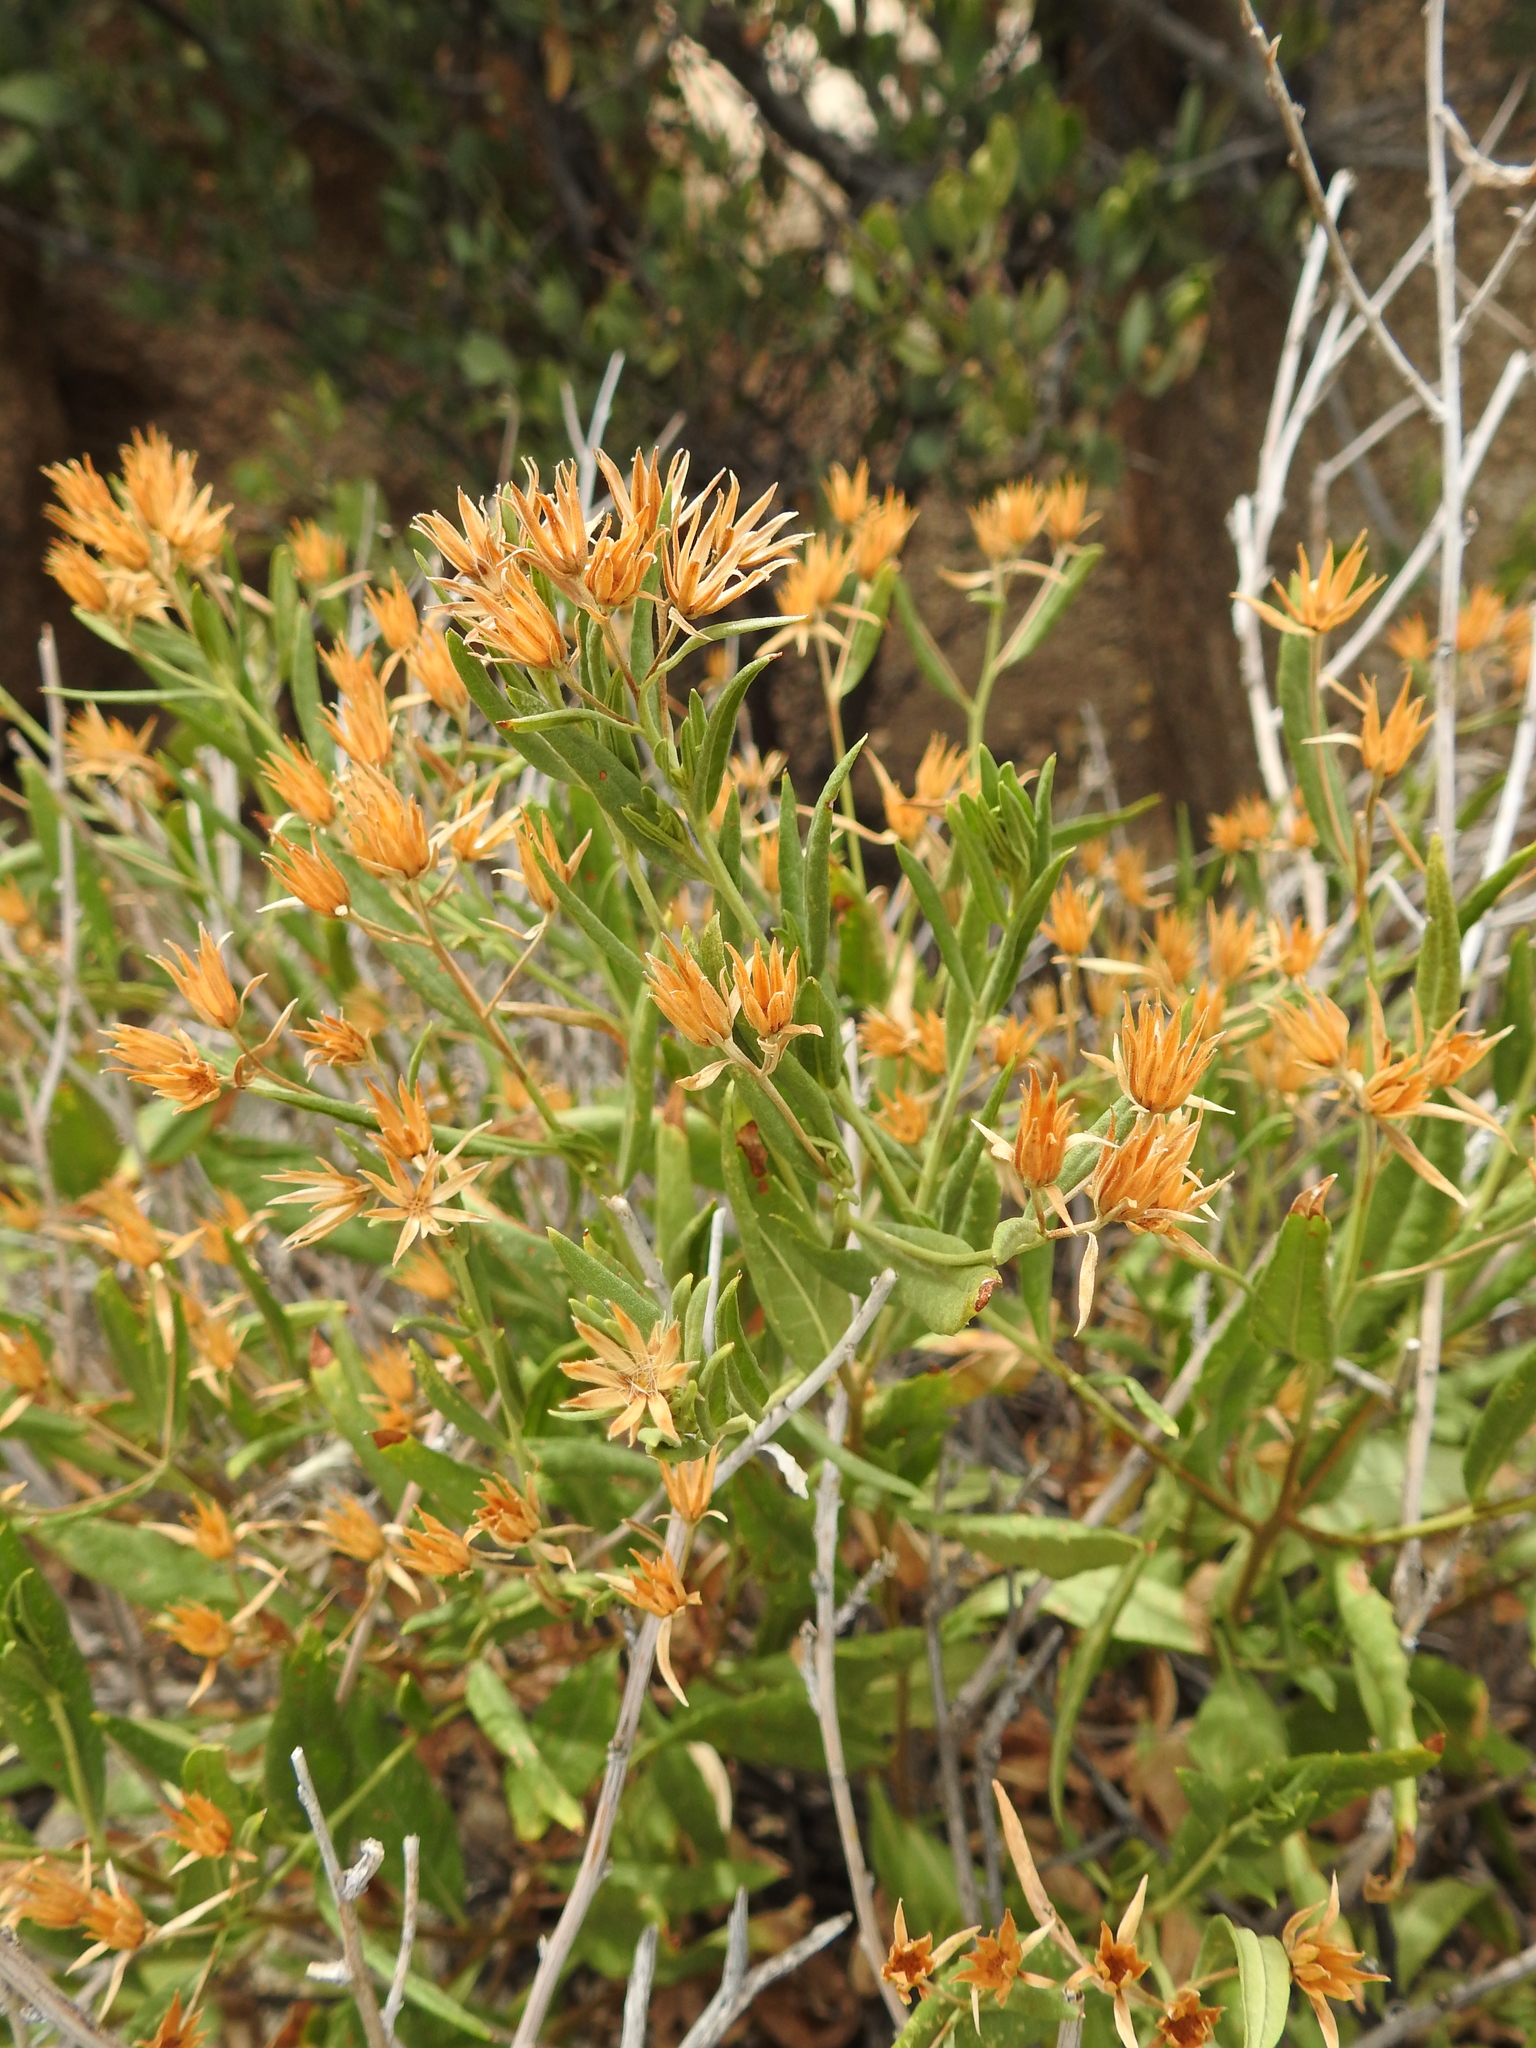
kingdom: Plantae
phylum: Tracheophyta
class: Magnoliopsida
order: Asterales
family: Asteraceae
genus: Trixis
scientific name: Trixis californica
